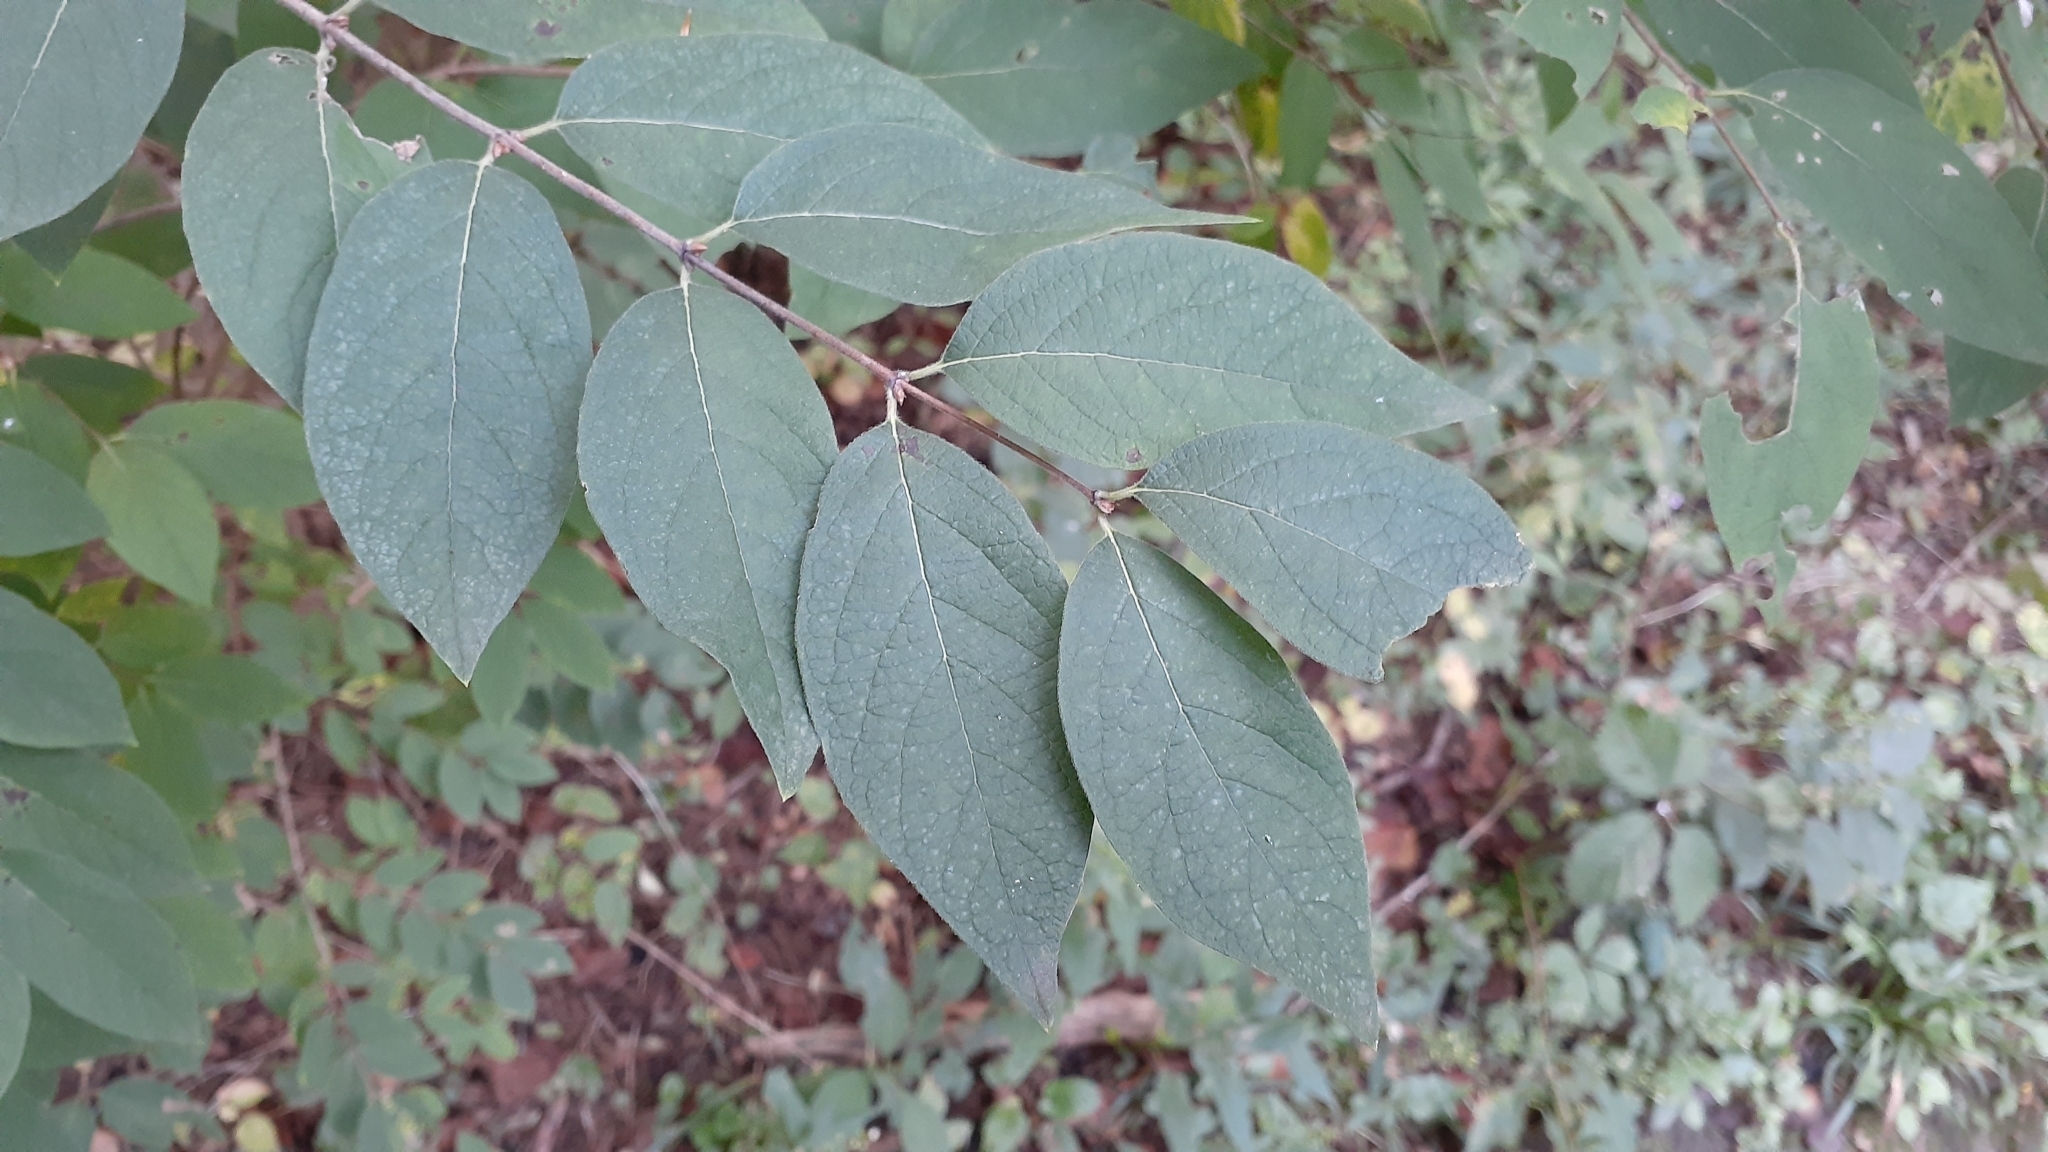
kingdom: Plantae
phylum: Tracheophyta
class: Magnoliopsida
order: Dipsacales
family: Caprifoliaceae
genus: Lonicera
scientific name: Lonicera maackii
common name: Amur honeysuckle
